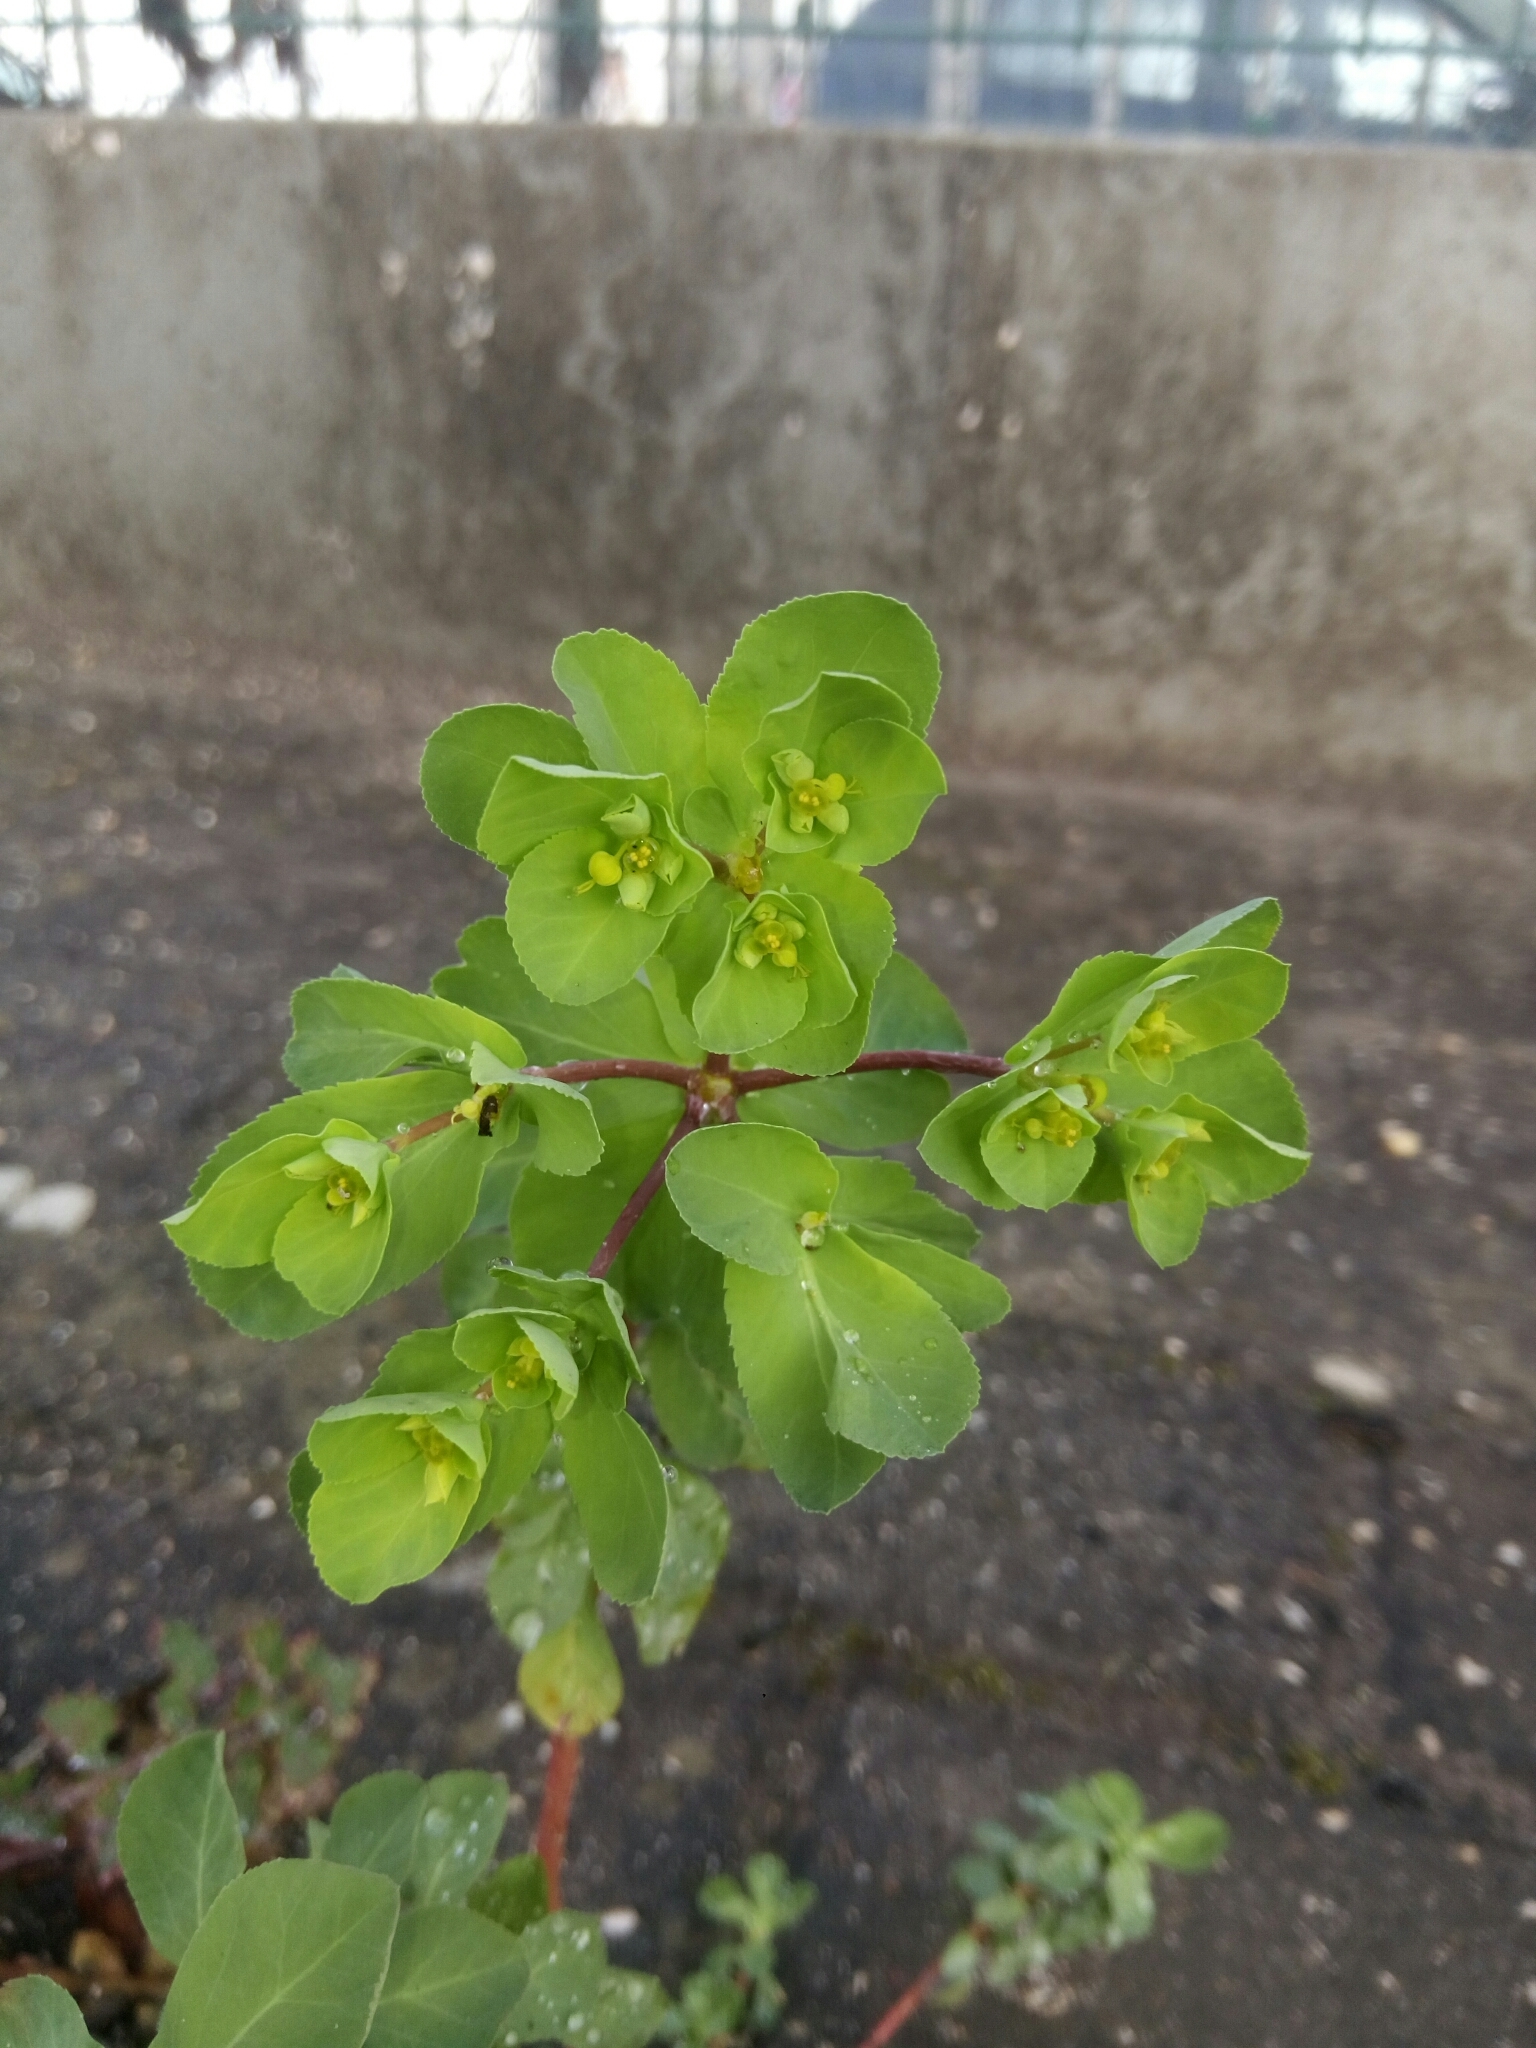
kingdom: Plantae
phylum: Tracheophyta
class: Magnoliopsida
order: Malpighiales
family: Euphorbiaceae
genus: Euphorbia
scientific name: Euphorbia helioscopia
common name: Sun spurge
